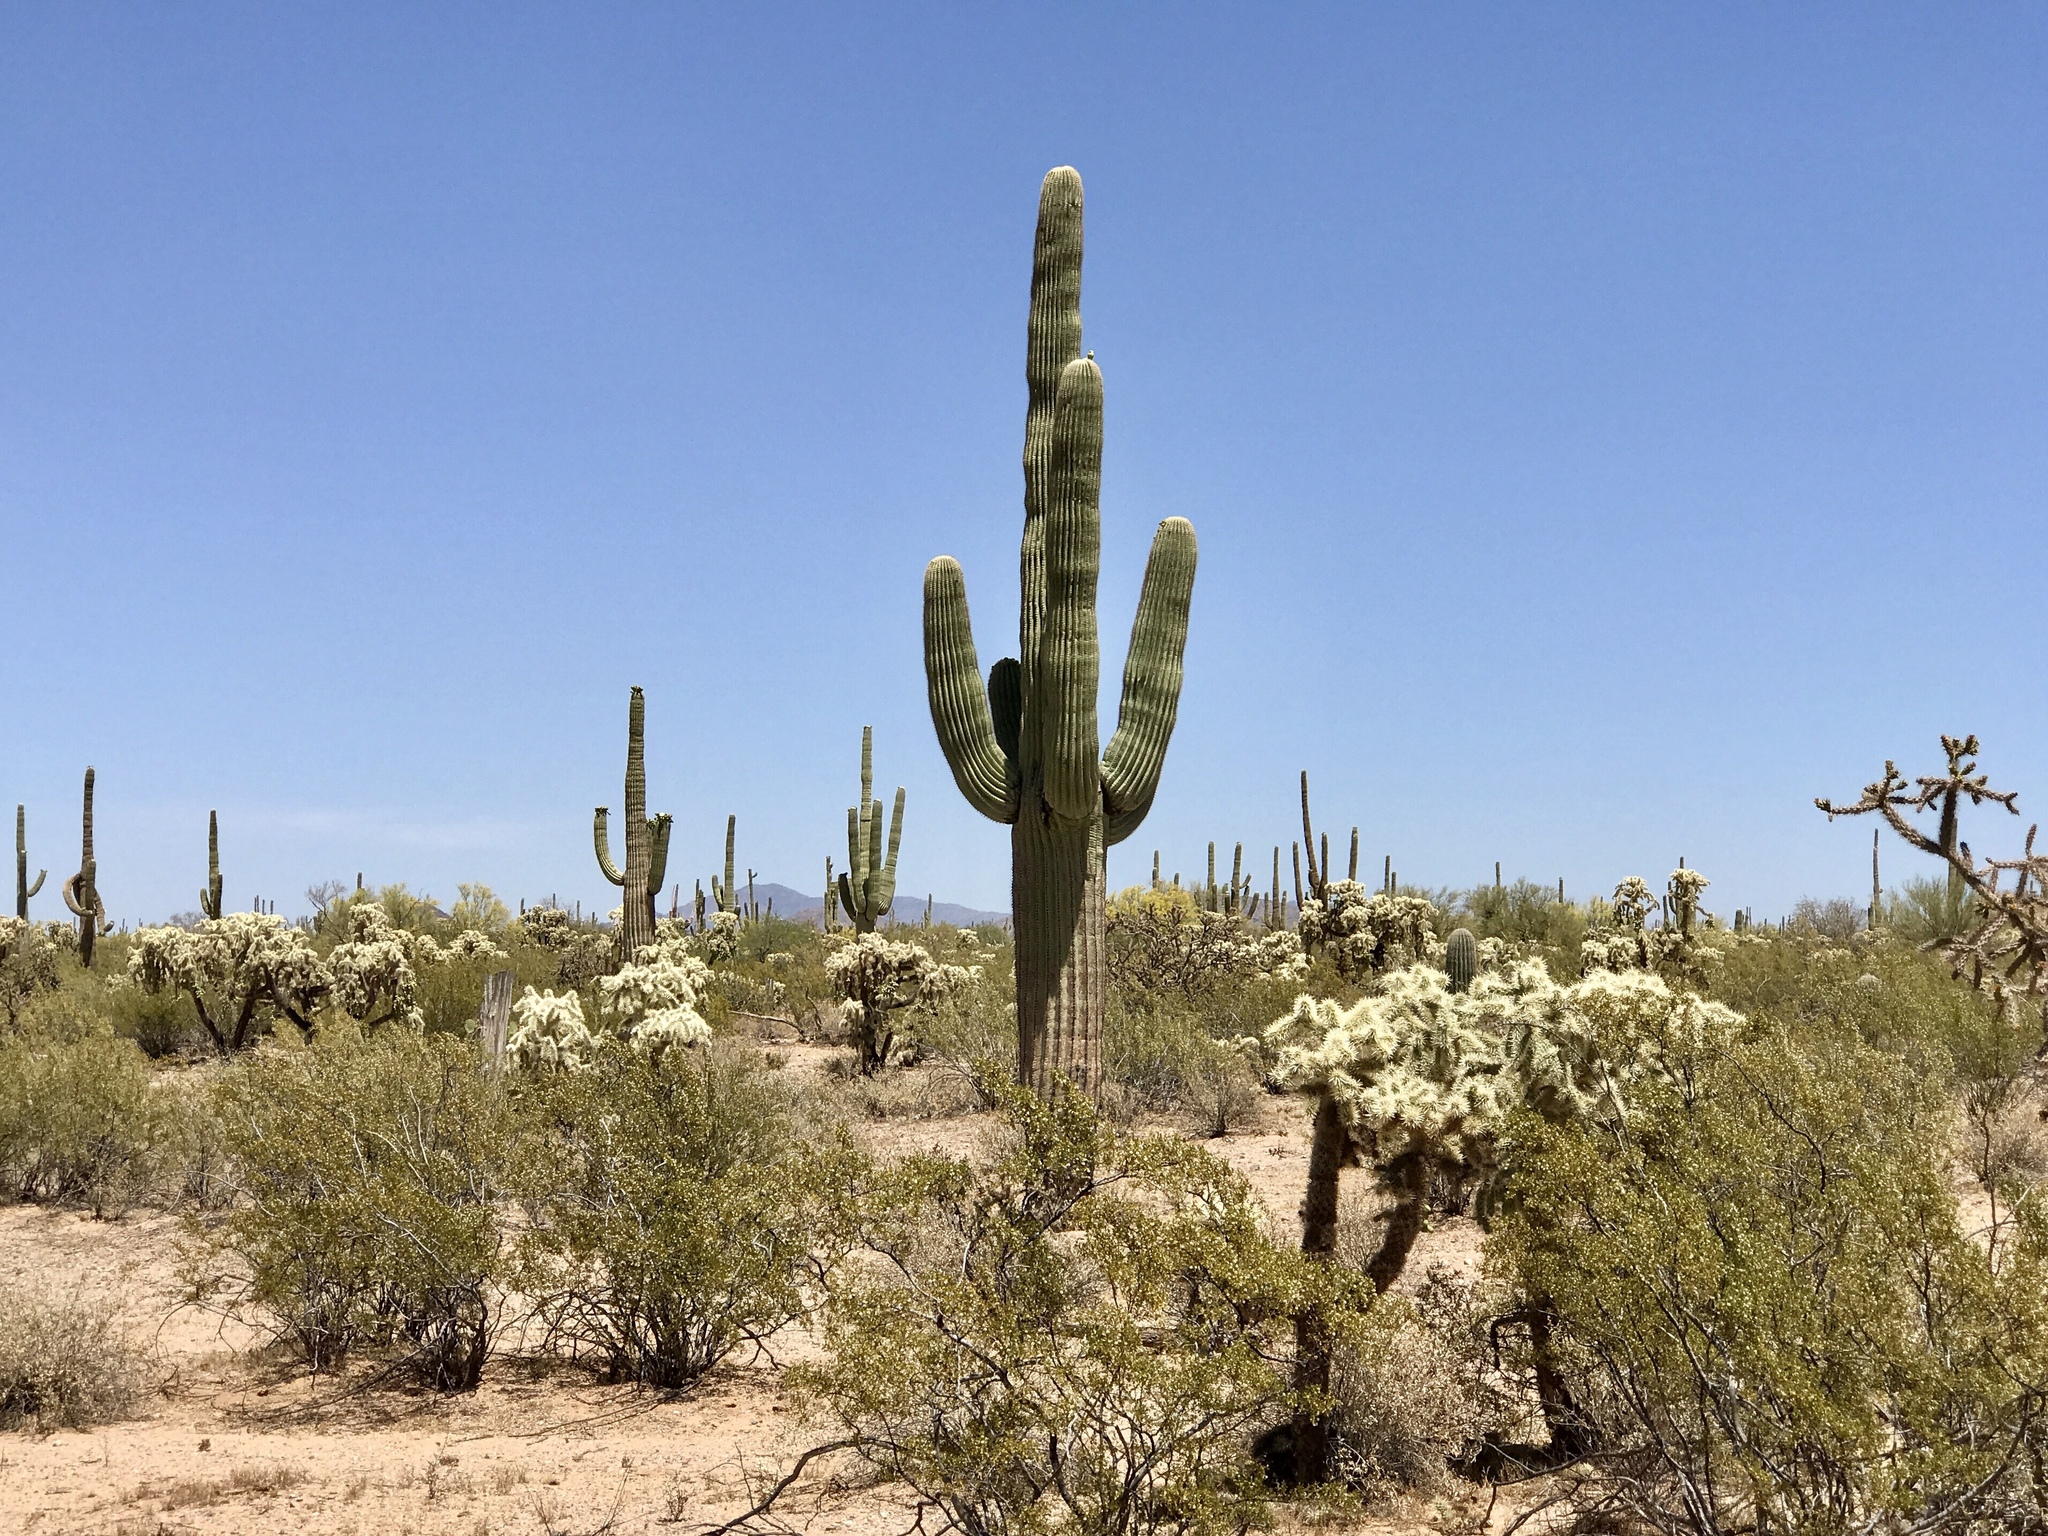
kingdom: Plantae
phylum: Tracheophyta
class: Magnoliopsida
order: Caryophyllales
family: Cactaceae
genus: Carnegiea
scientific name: Carnegiea gigantea
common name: Saguaro
